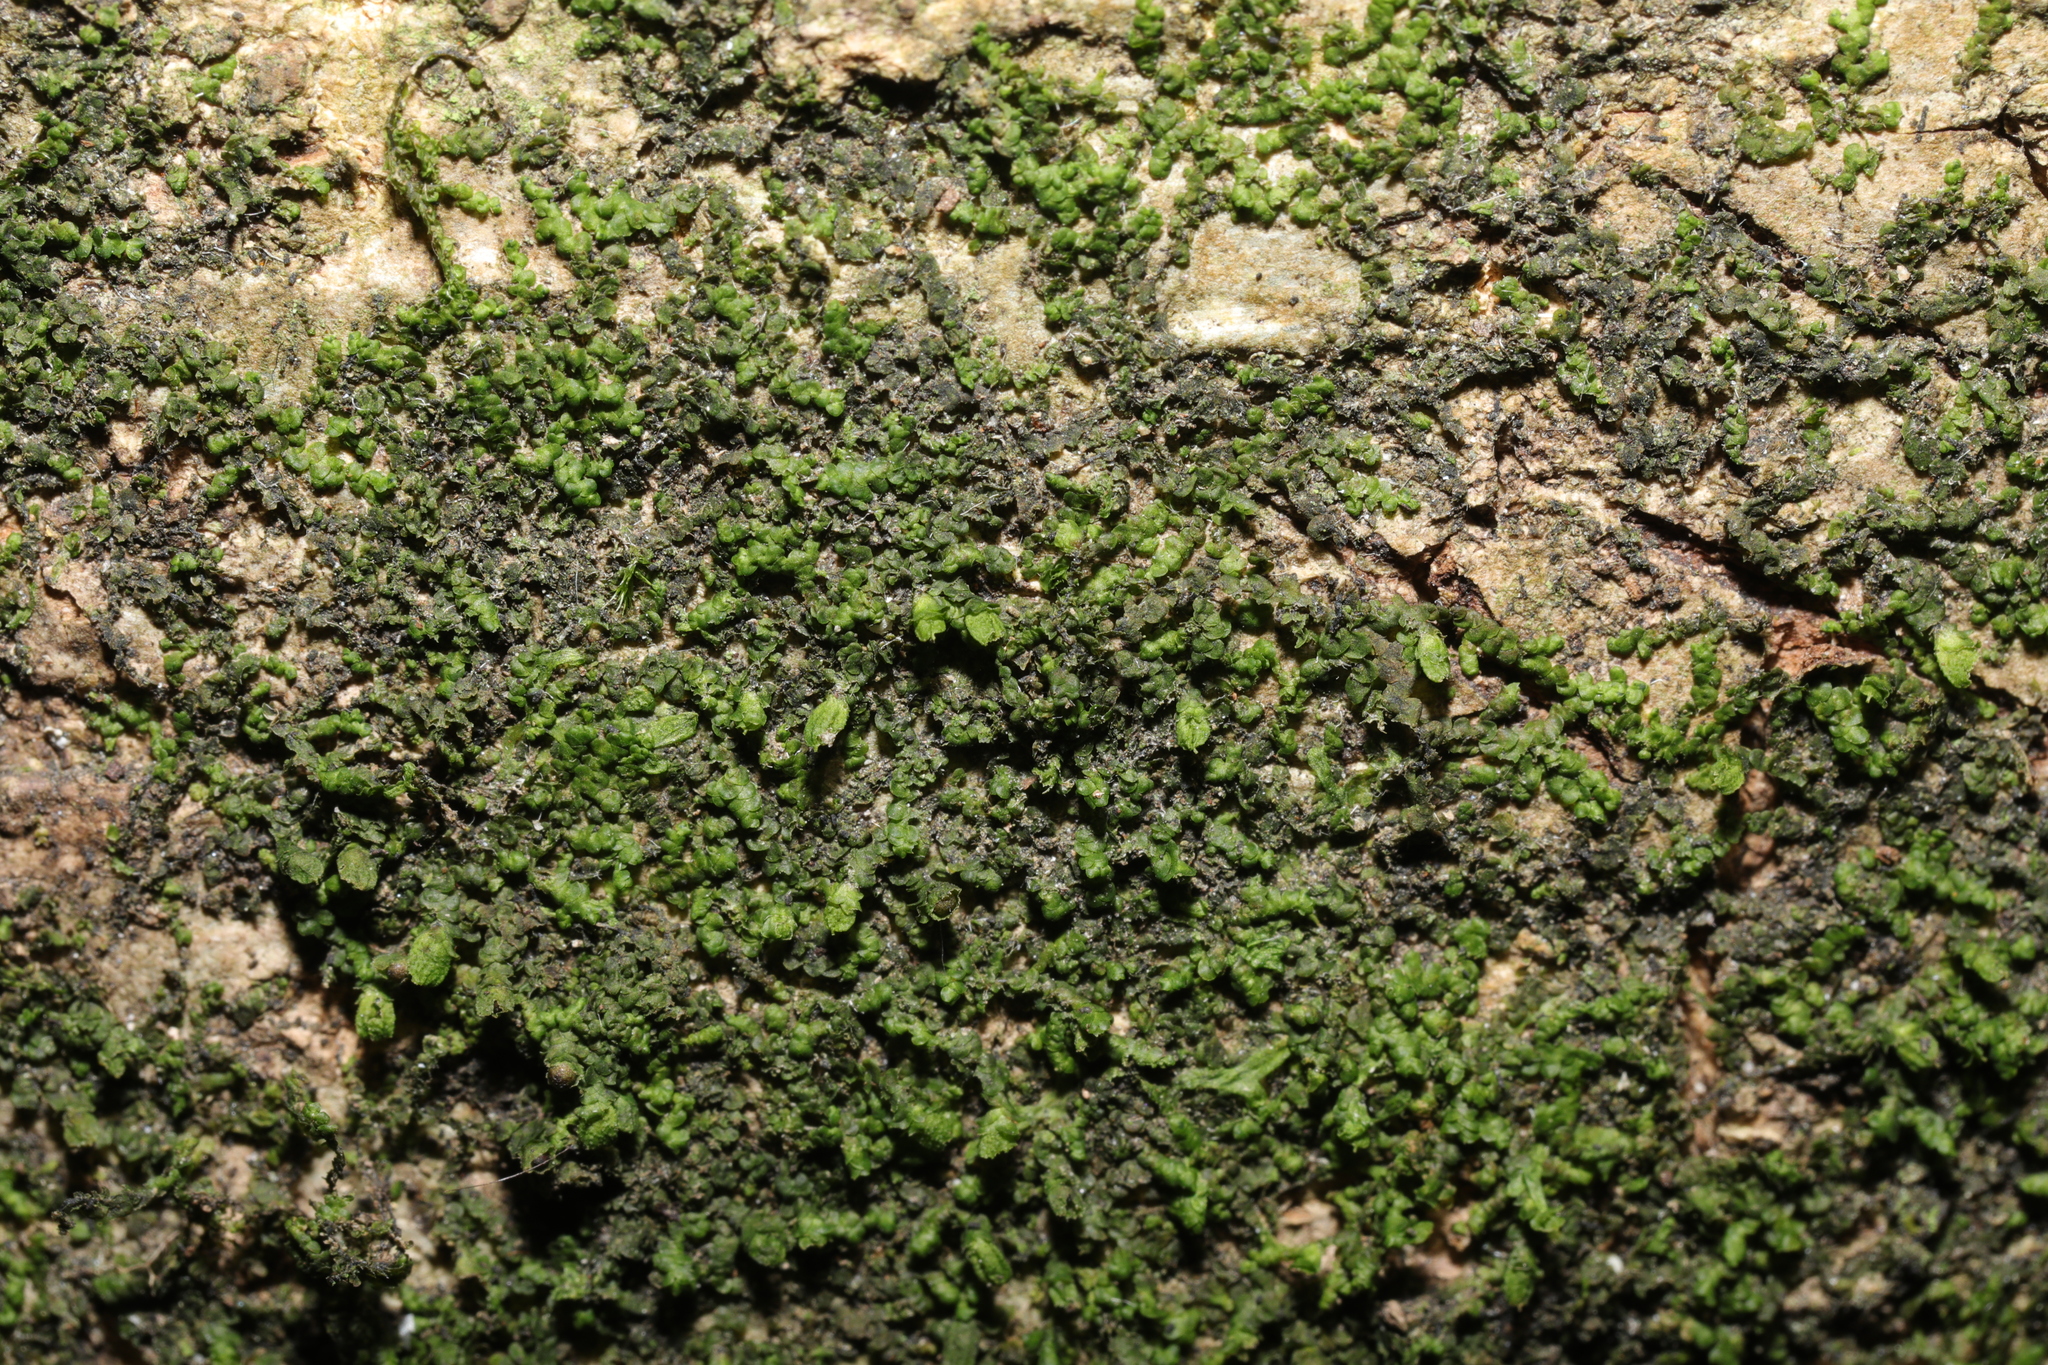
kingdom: Plantae
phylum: Marchantiophyta
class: Jungermanniopsida
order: Porellales
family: Frullaniaceae
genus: Frullania
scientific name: Frullania dilatata
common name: Dilated scalewort
